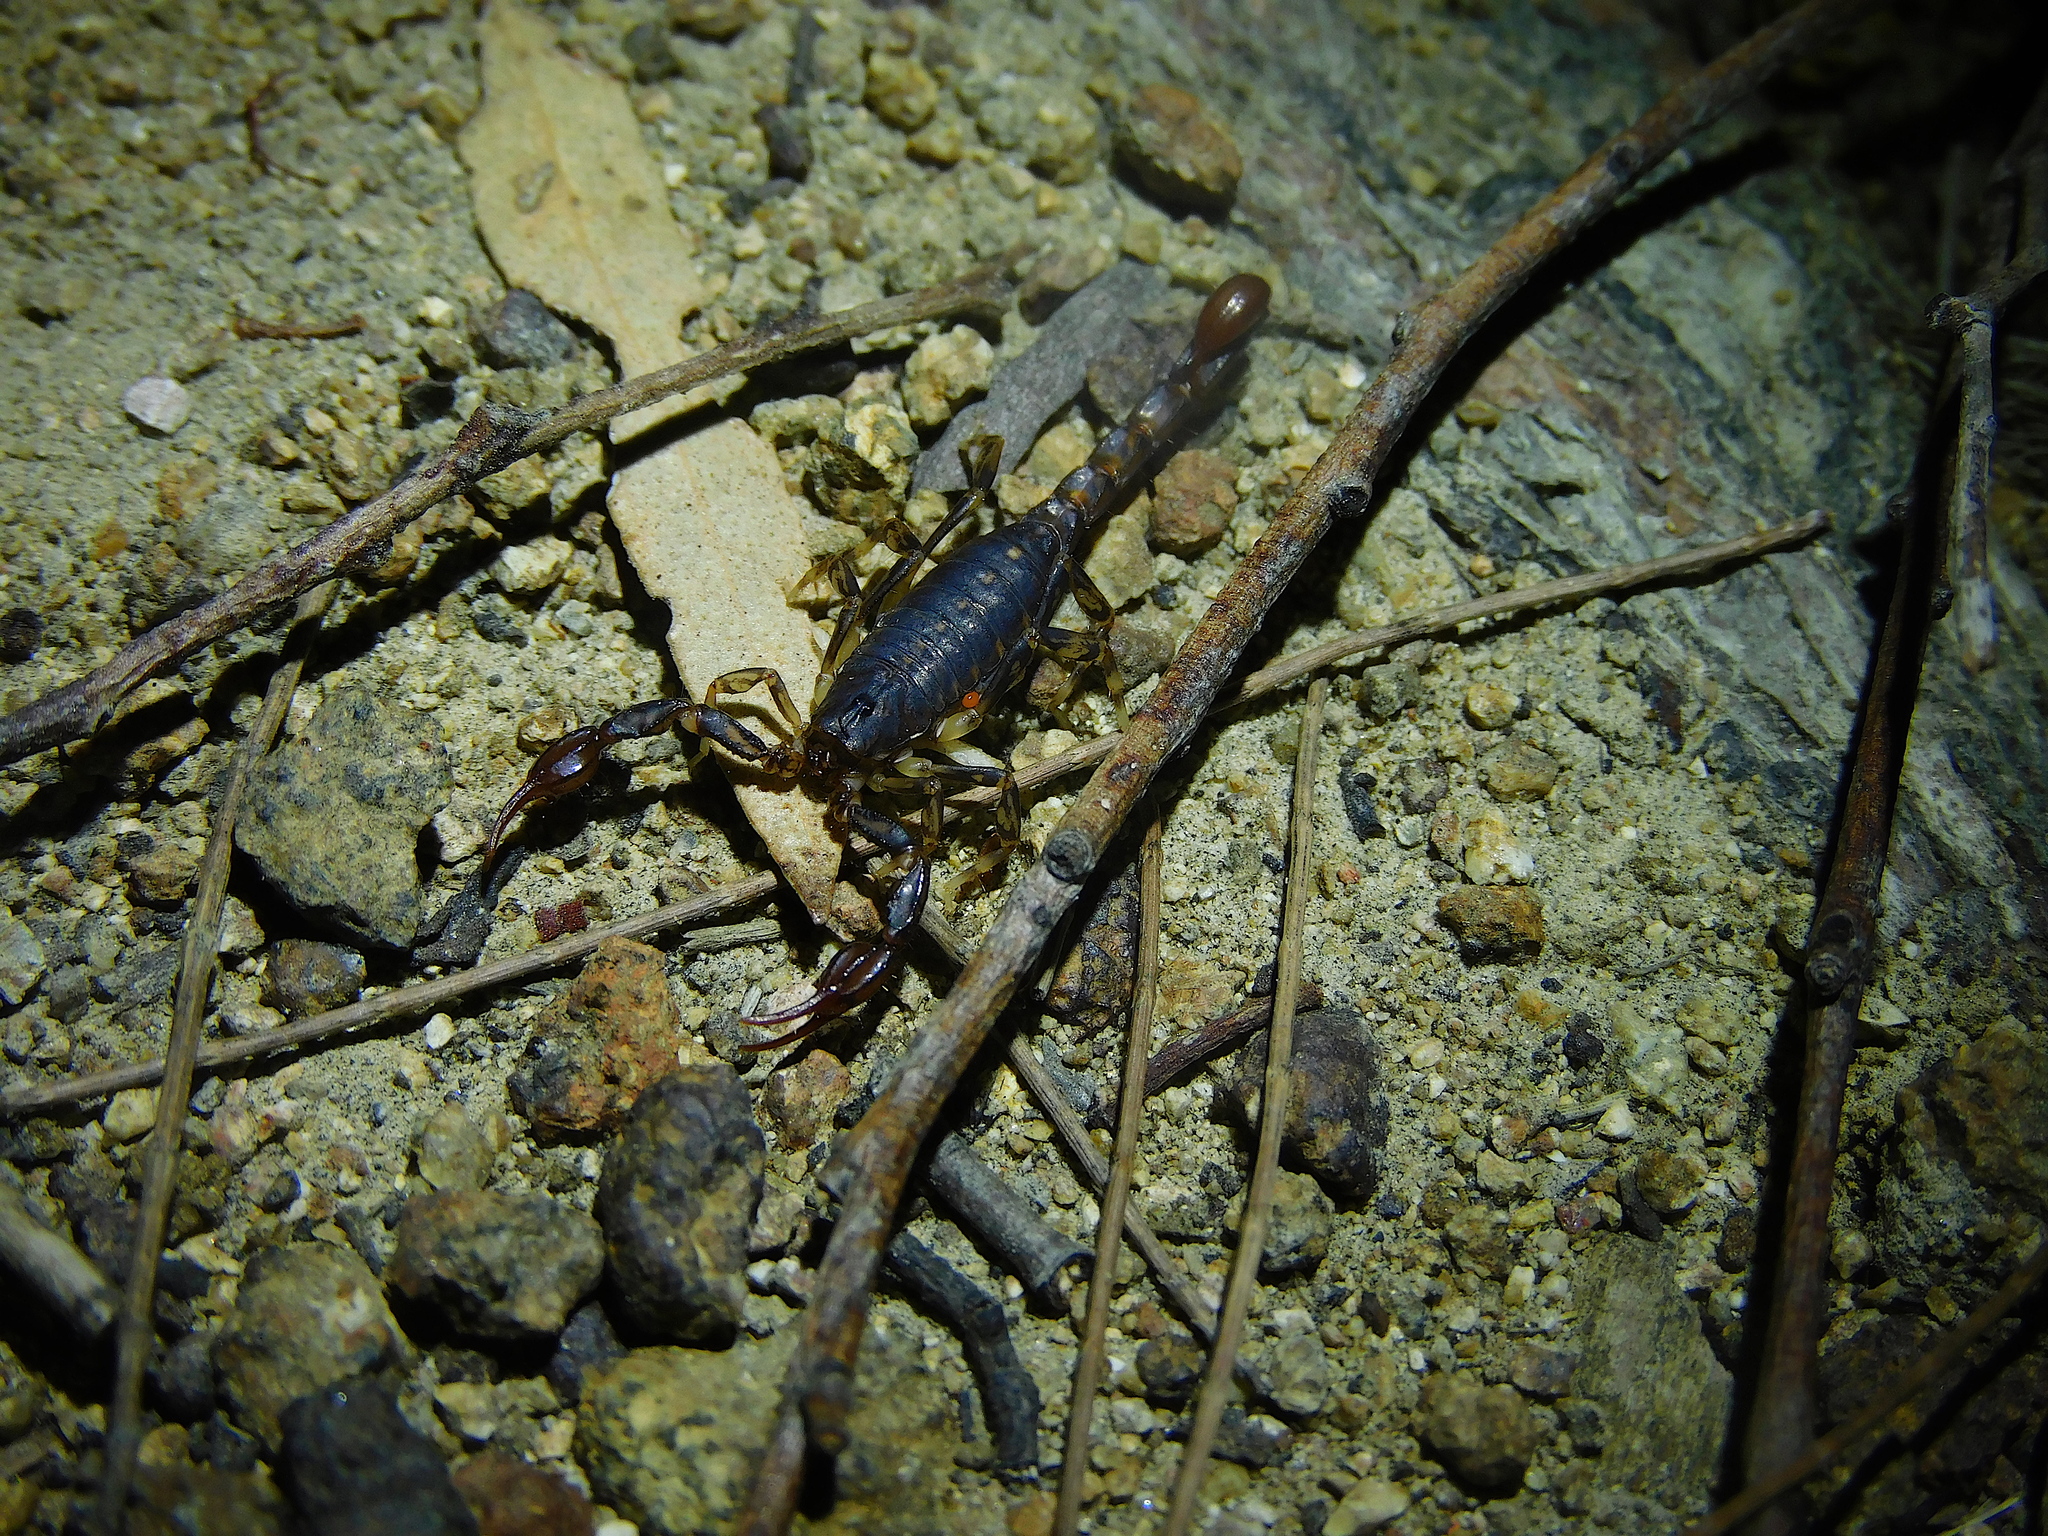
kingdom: Animalia
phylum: Arthropoda
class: Arachnida
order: Scorpiones
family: Bothriuridae
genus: Cercophonius
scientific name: Cercophonius squama
